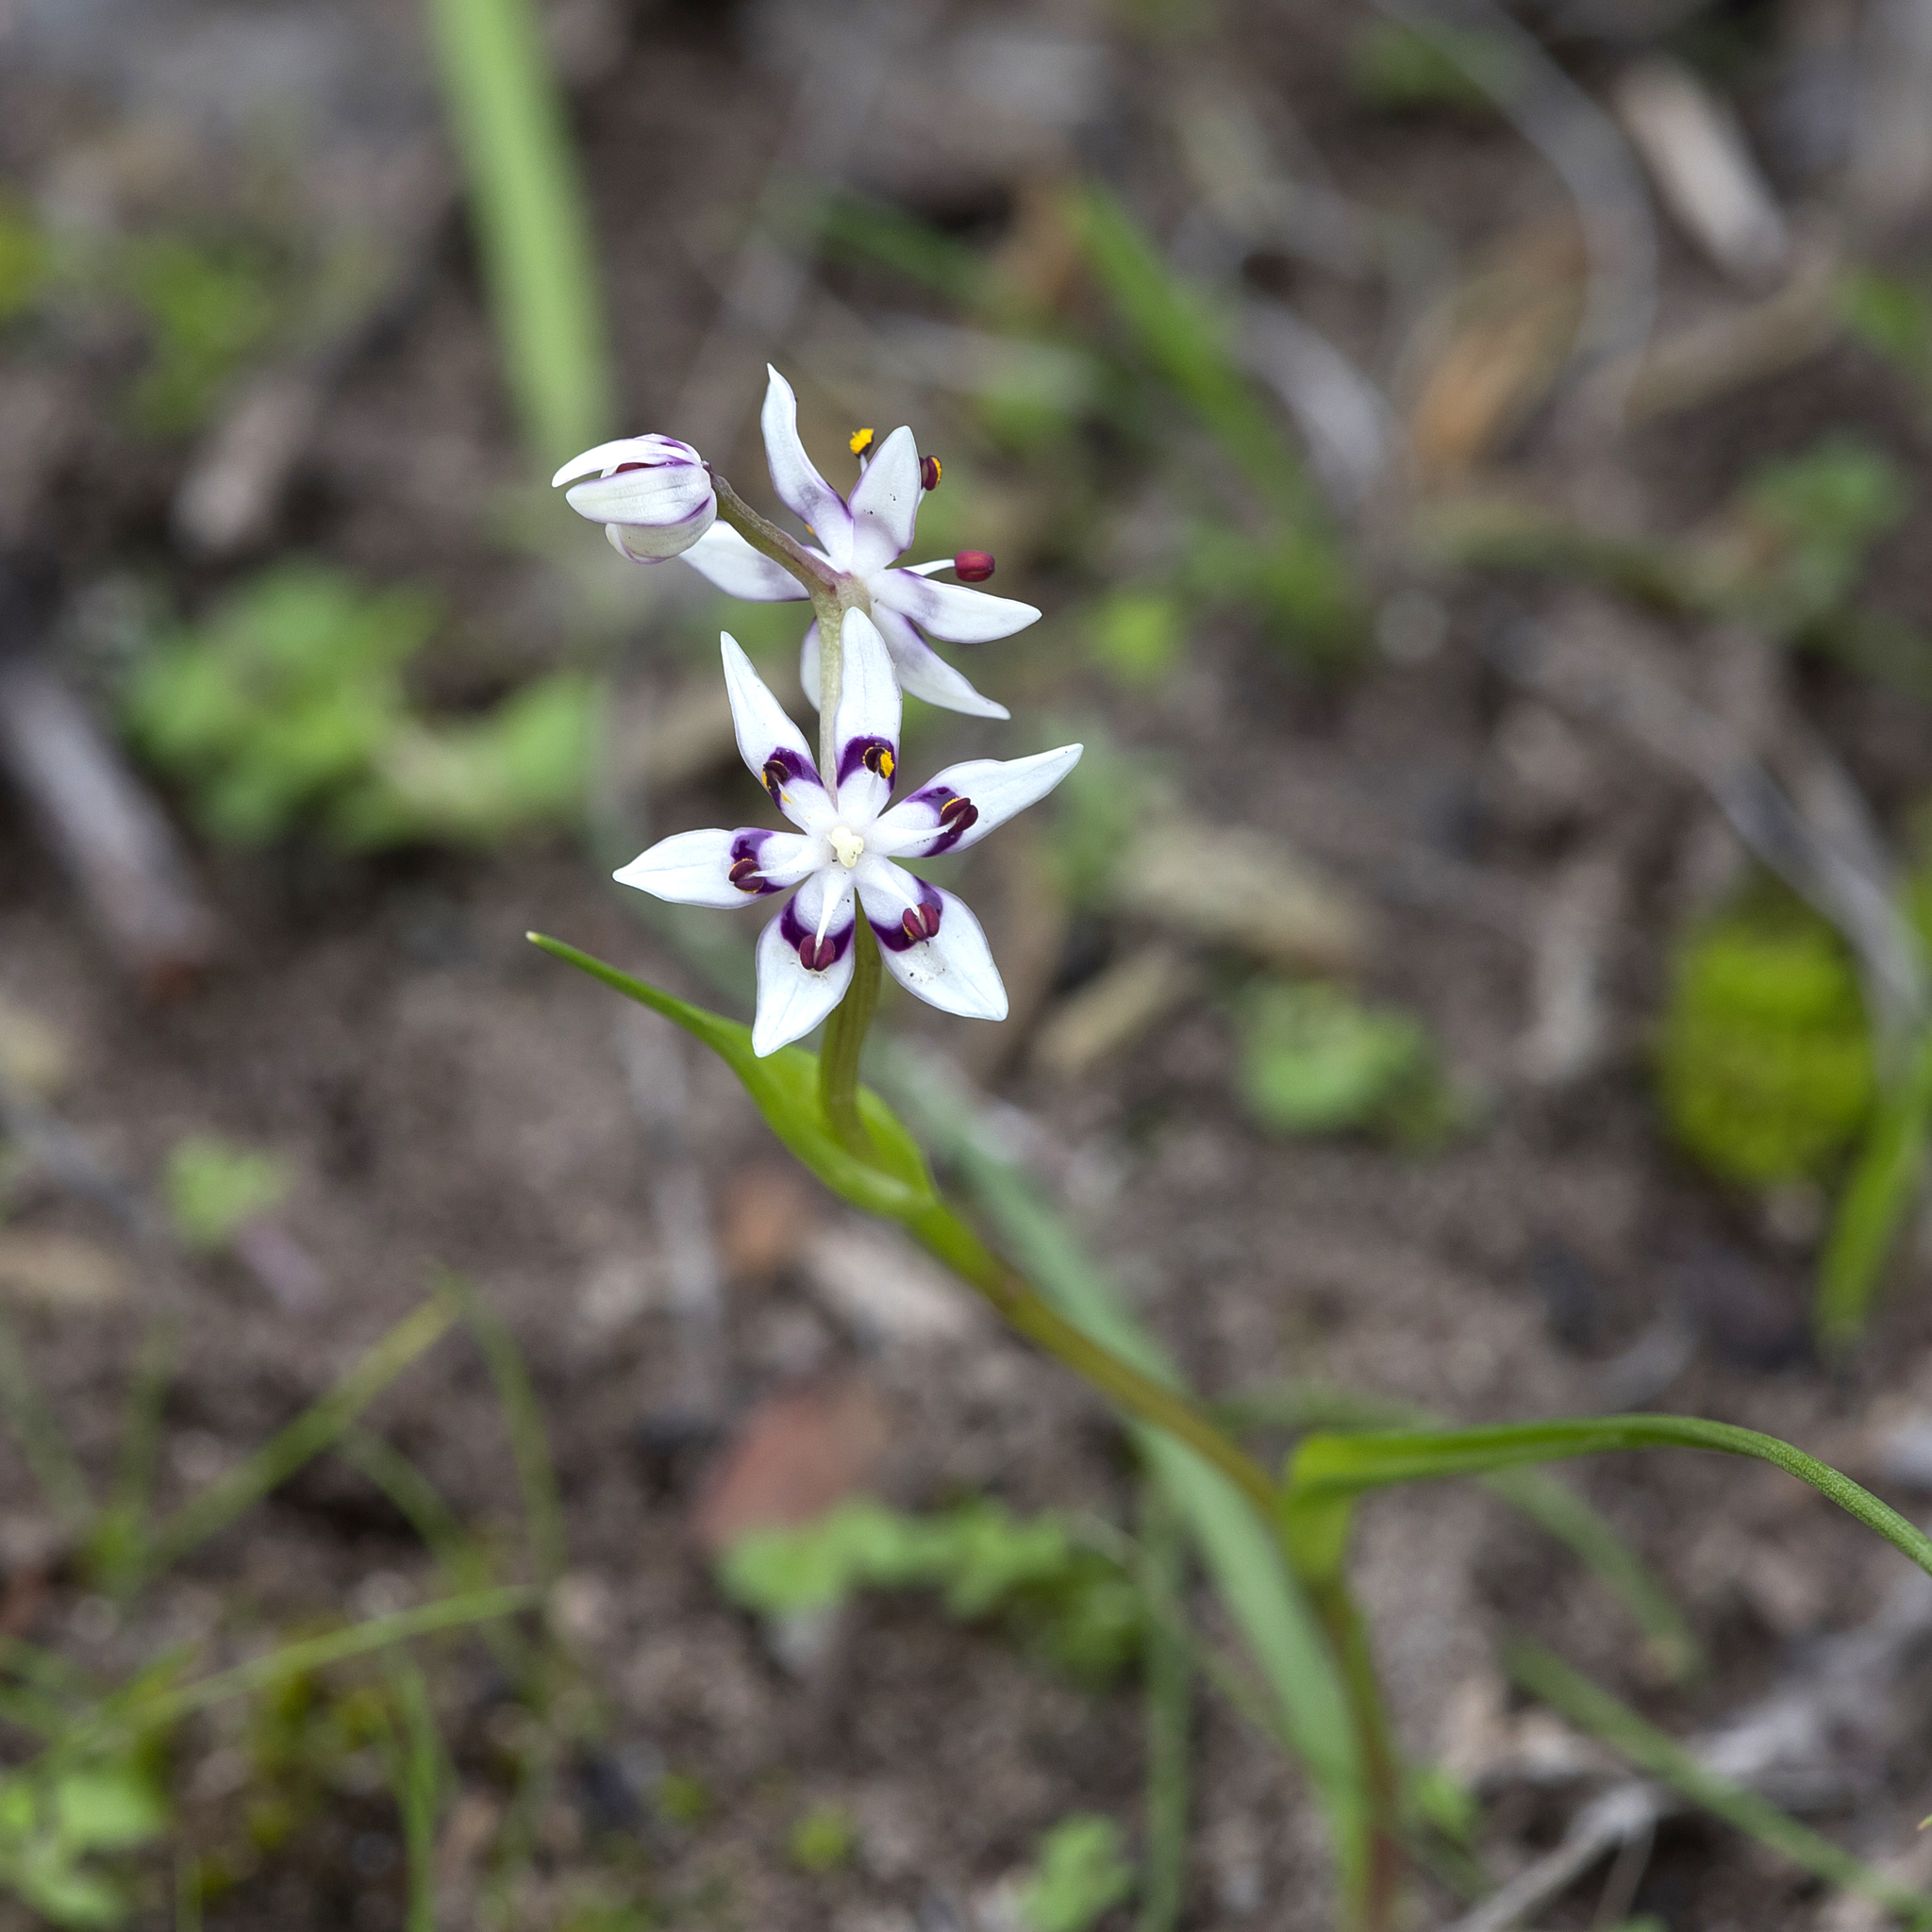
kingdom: Plantae
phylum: Tracheophyta
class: Liliopsida
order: Liliales
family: Colchicaceae
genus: Wurmbea
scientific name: Wurmbea dioica
